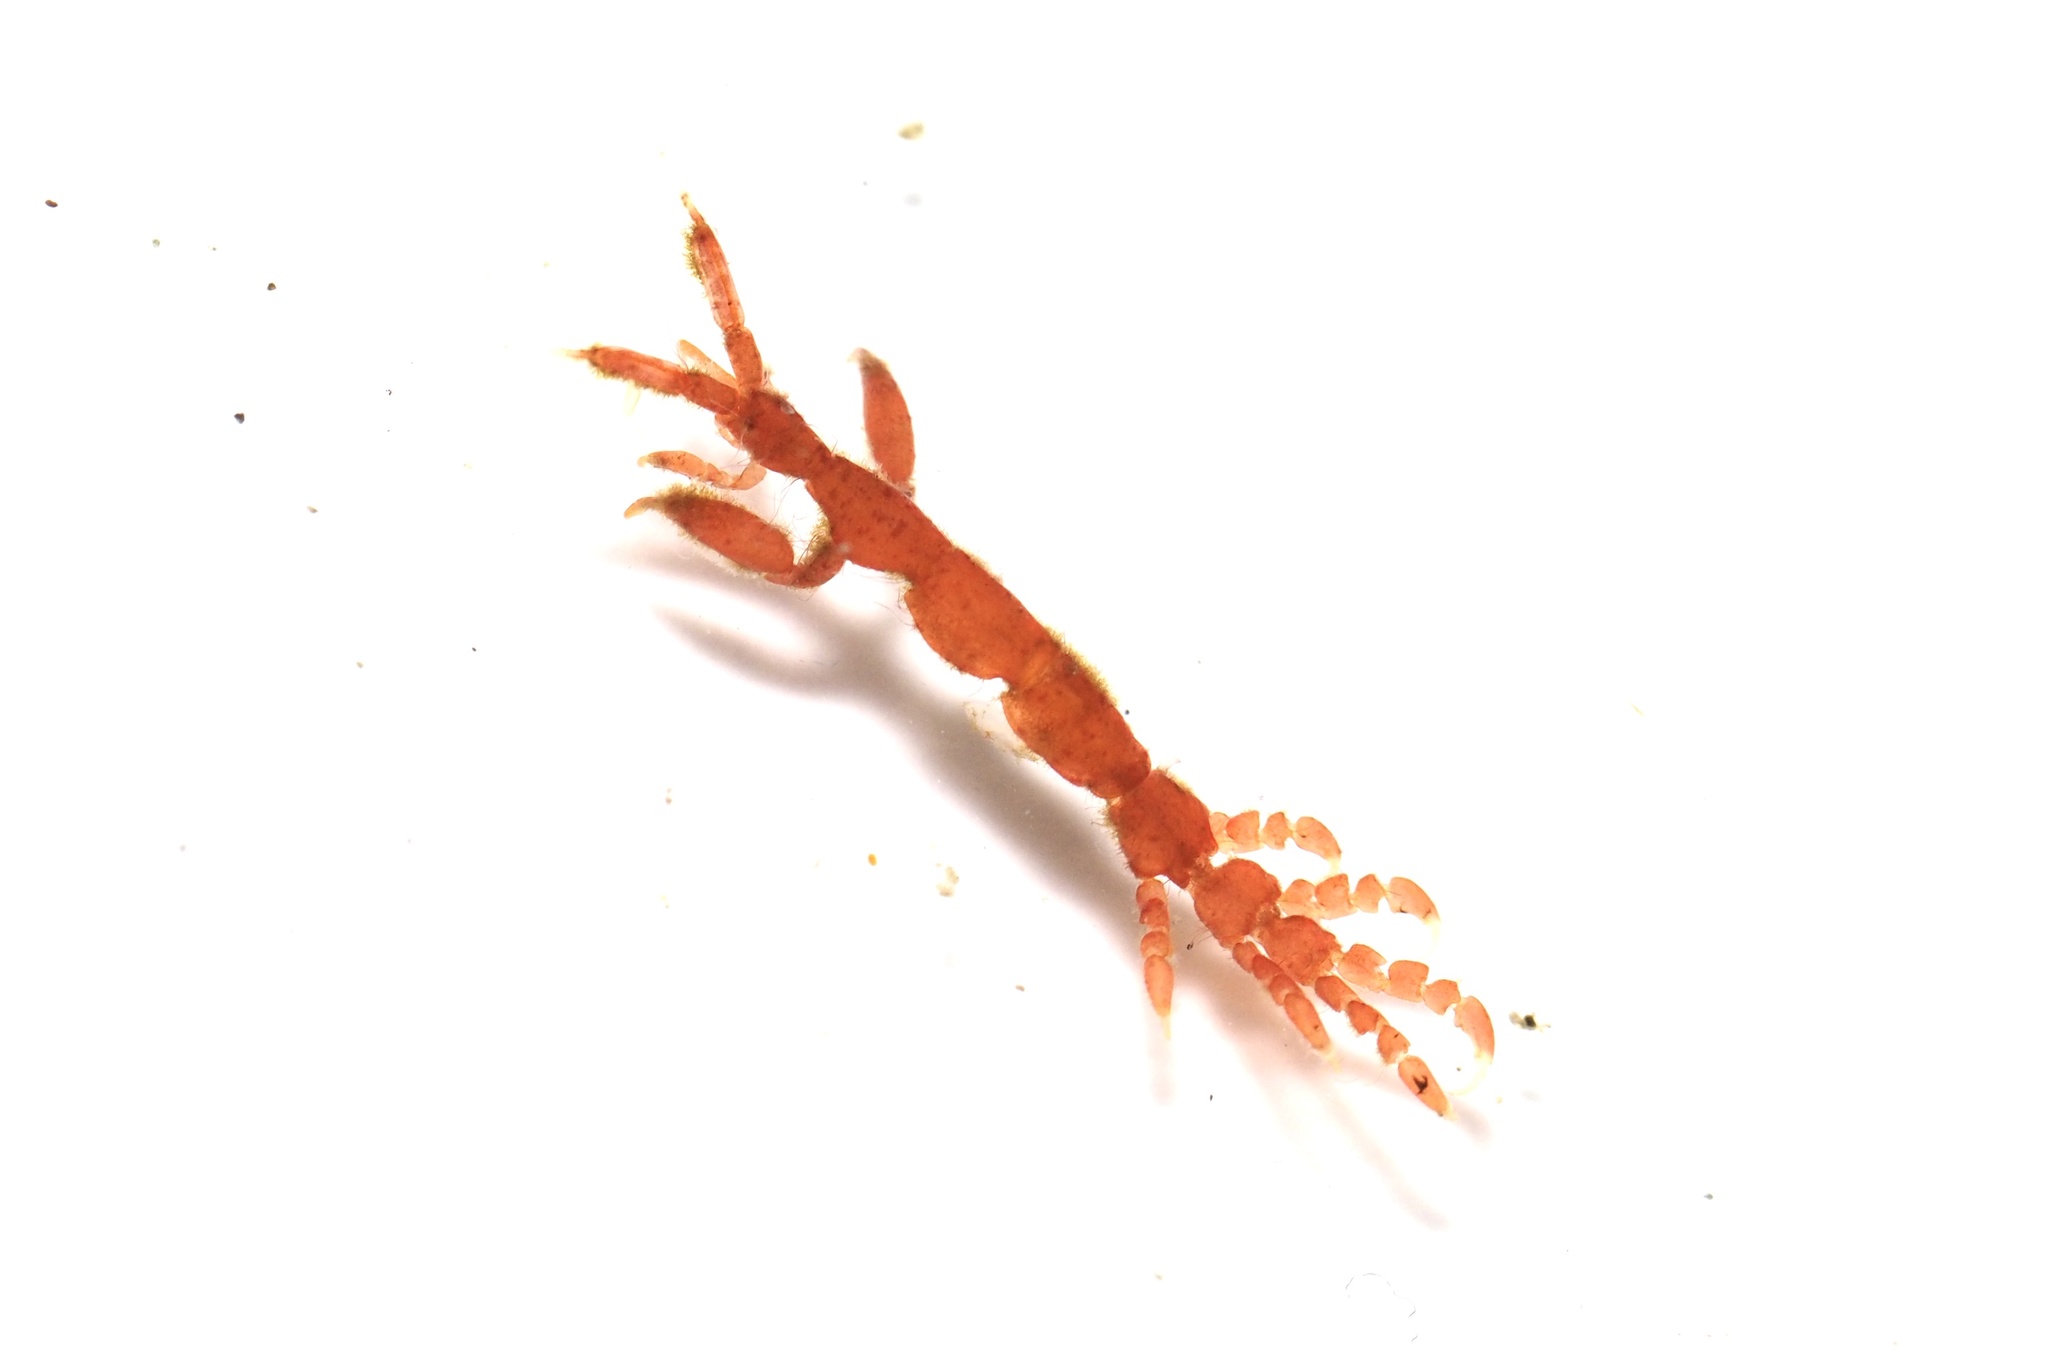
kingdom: Animalia
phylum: Arthropoda
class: Malacostraca
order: Amphipoda
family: Caprellidae
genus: Caprella
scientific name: Caprella penantis
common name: Skeleton shrimp
